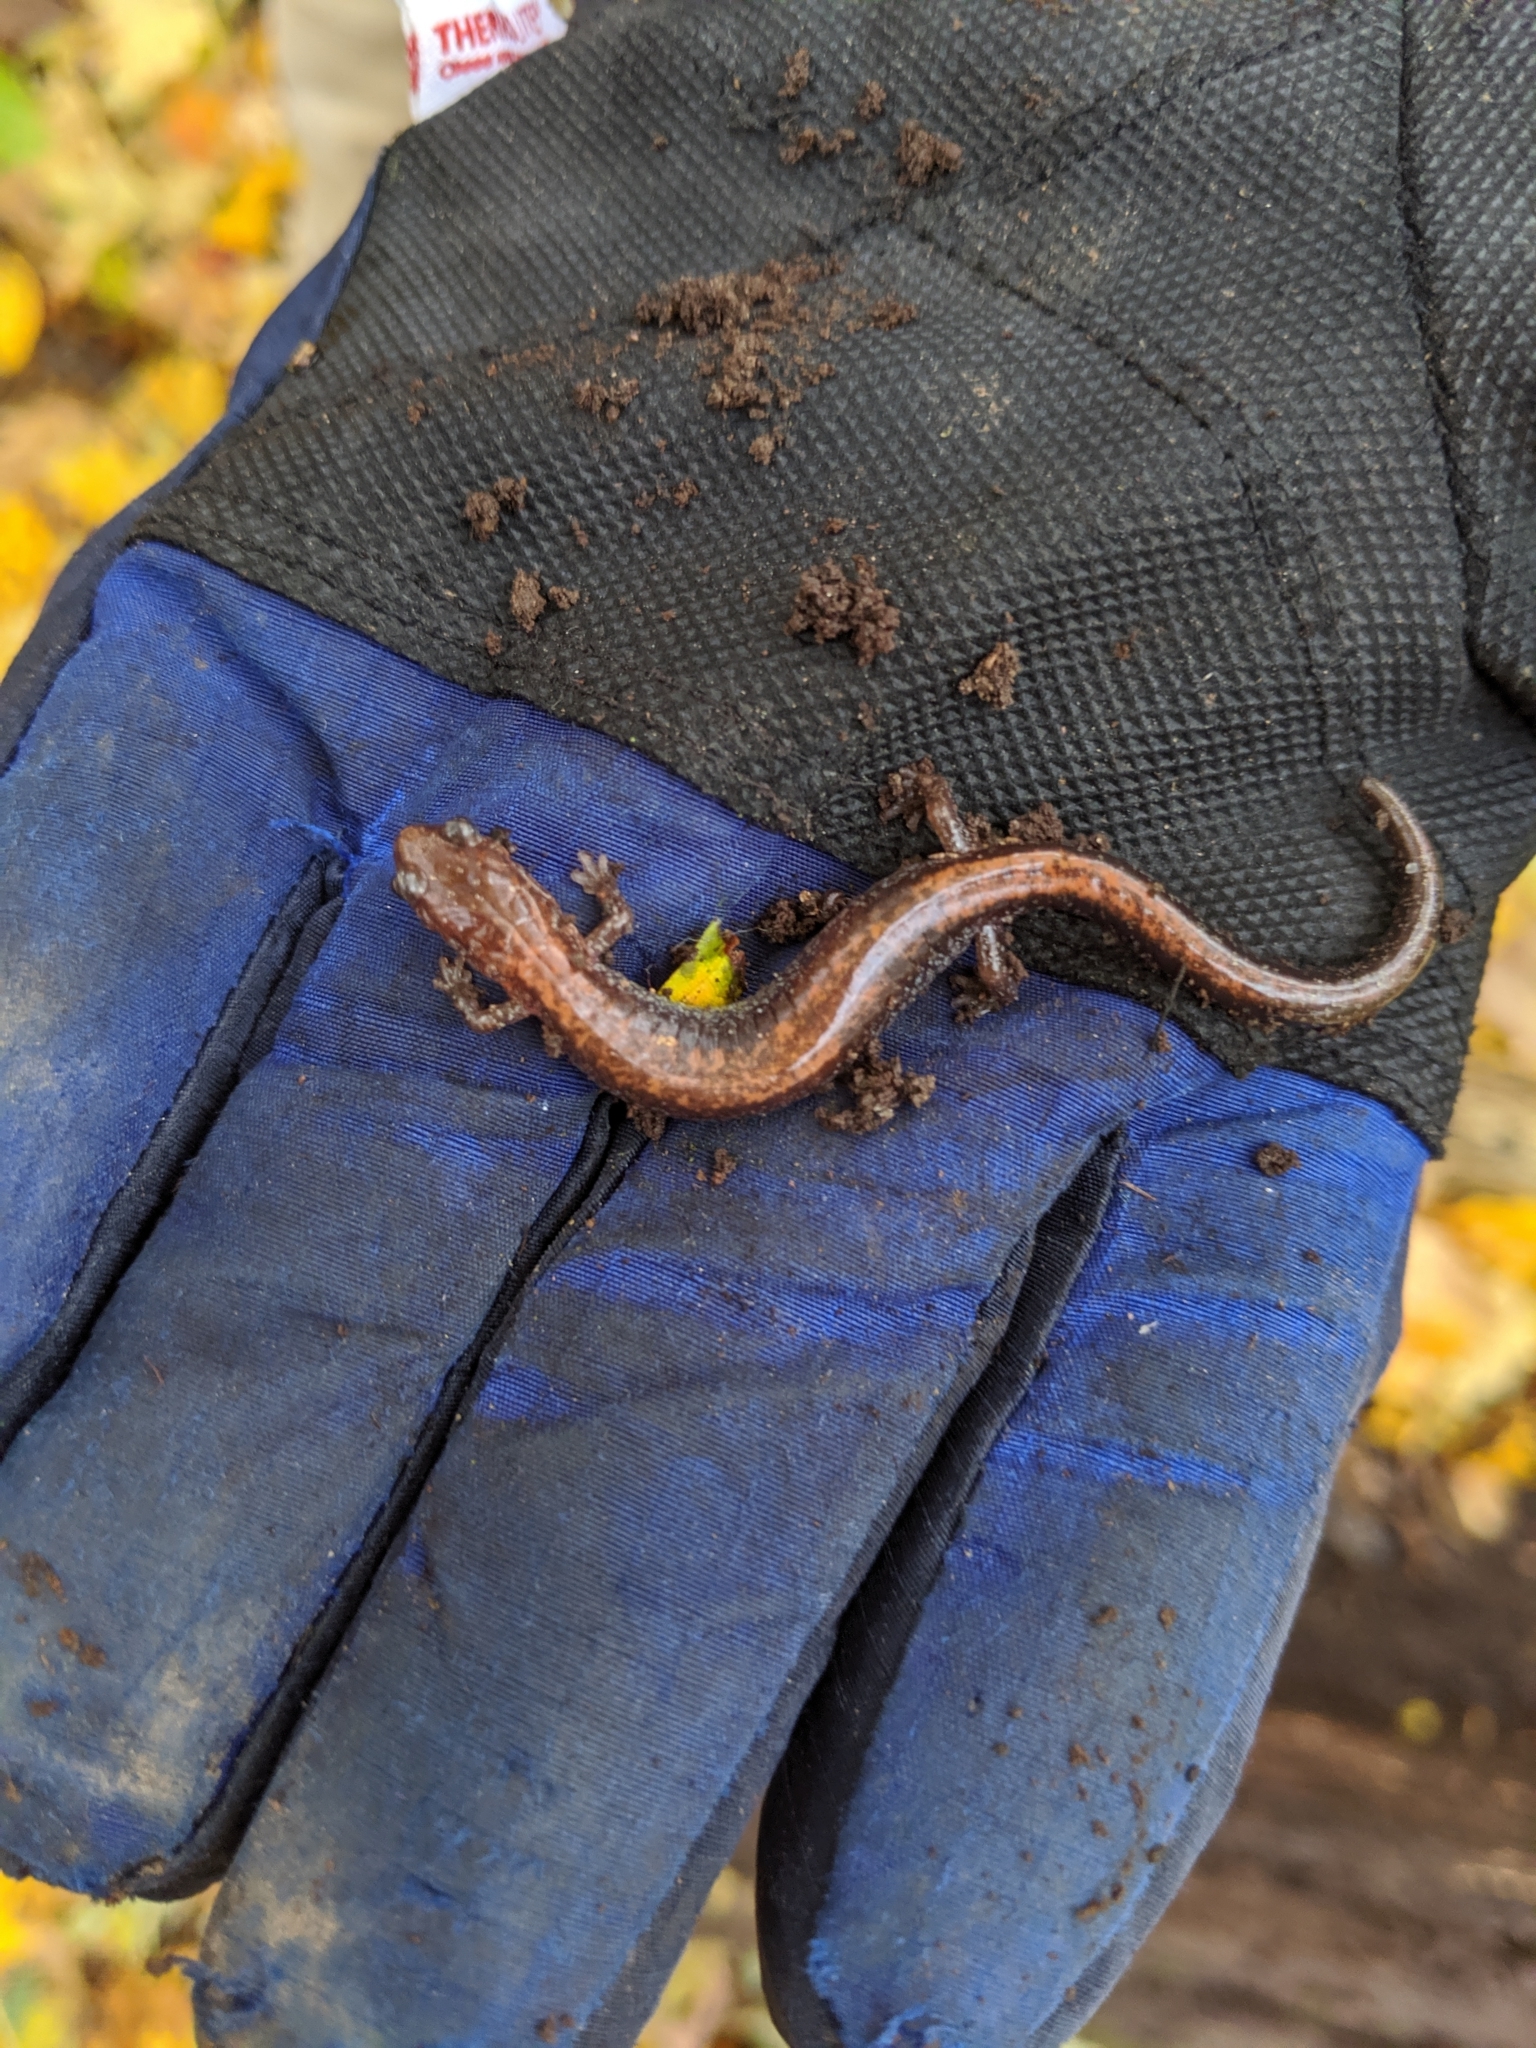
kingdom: Animalia
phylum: Chordata
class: Amphibia
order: Caudata
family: Plethodontidae
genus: Plethodon
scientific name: Plethodon cinereus
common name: Redback salamander
